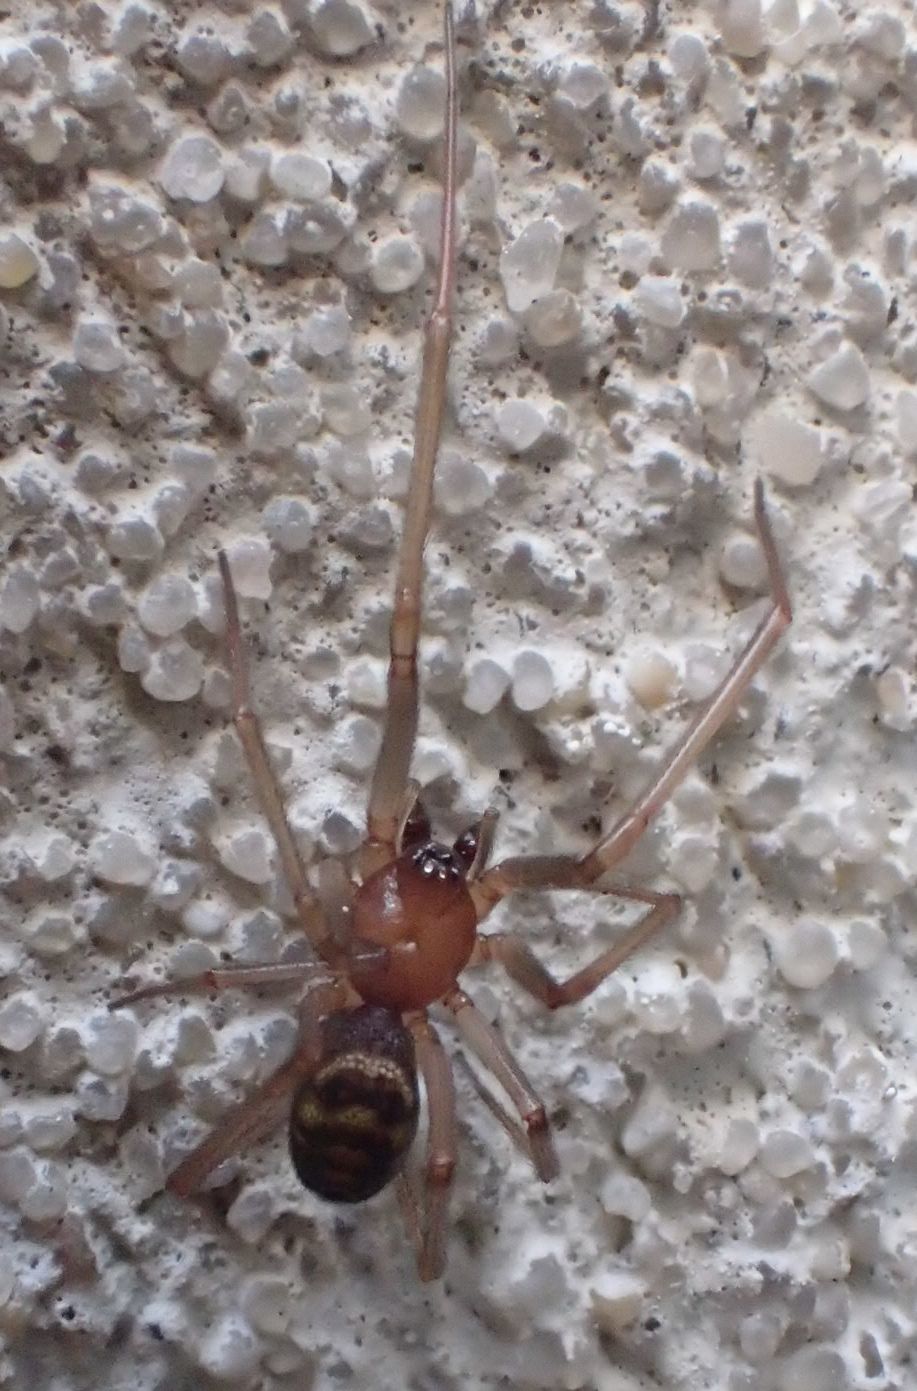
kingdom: Animalia
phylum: Arthropoda
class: Arachnida
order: Araneae
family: Theridiidae
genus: Steatoda
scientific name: Steatoda grossa
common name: False black widow
